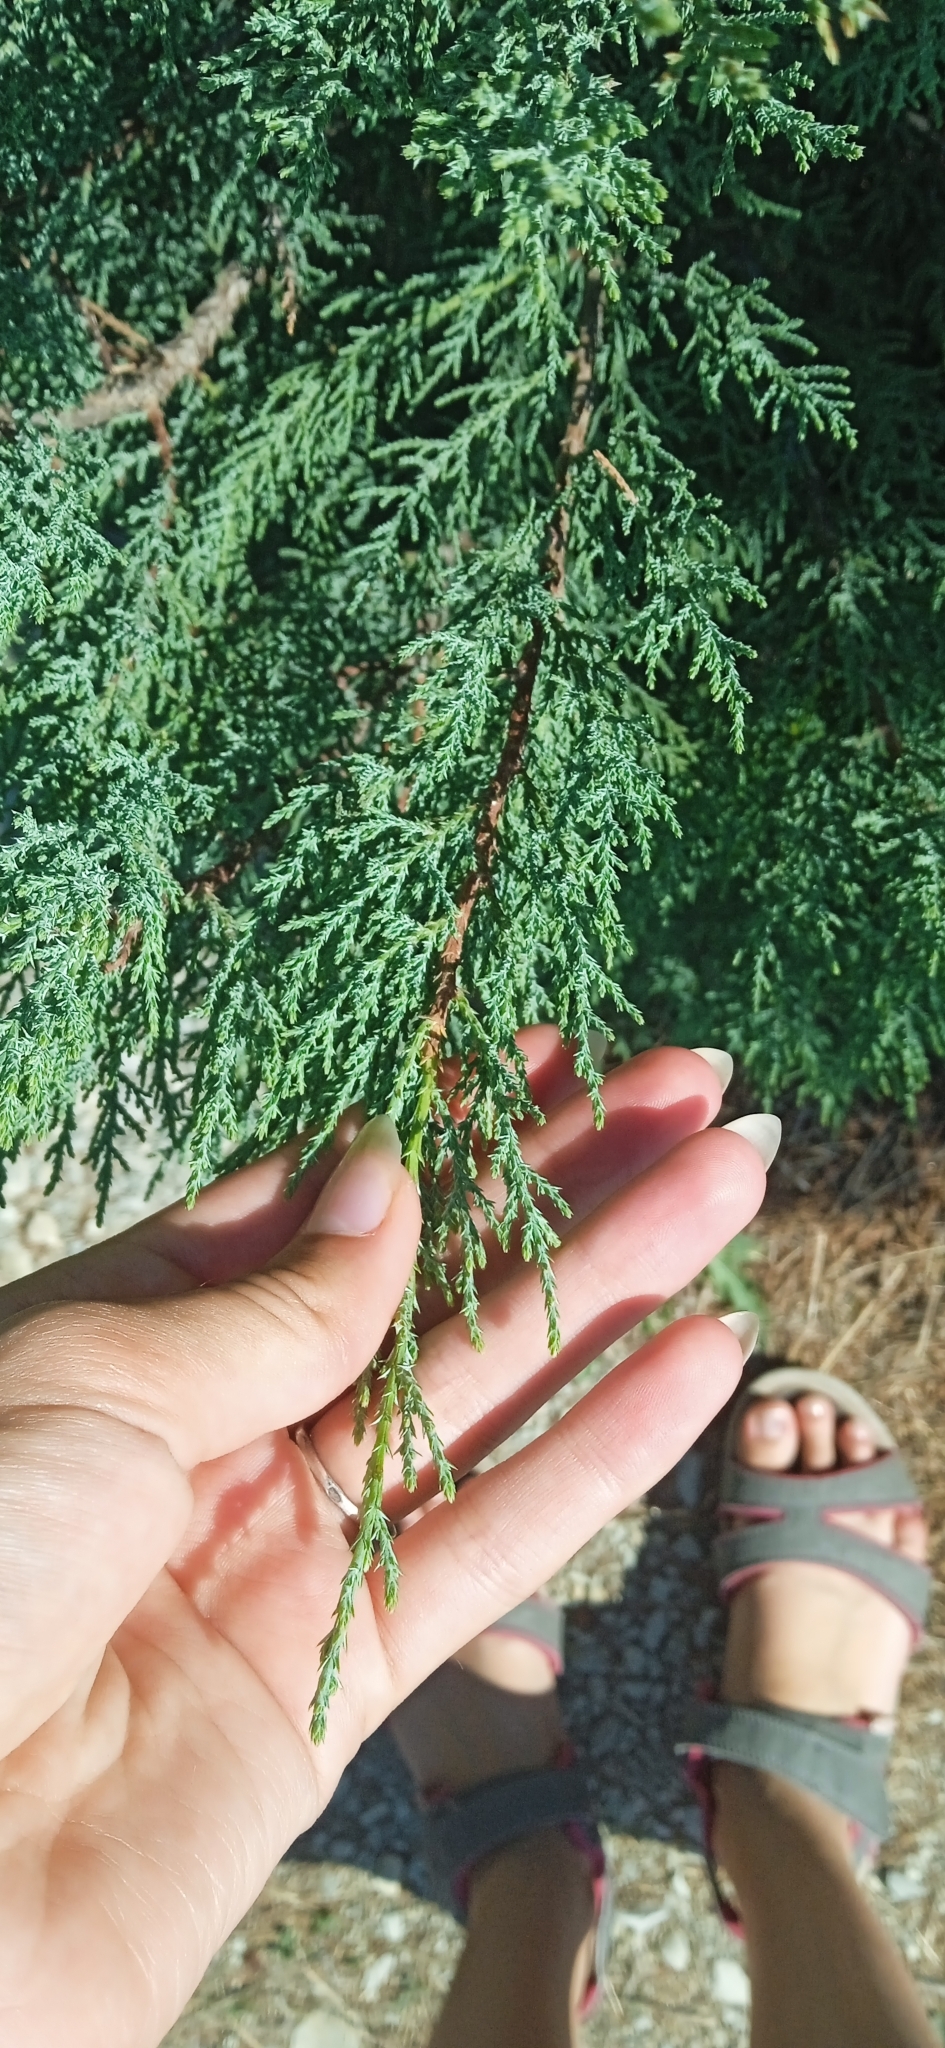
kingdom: Plantae
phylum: Tracheophyta
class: Pinopsida
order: Pinales
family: Cupressaceae
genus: Juniperus
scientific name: Juniperus excelsa
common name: Crimean juniper
